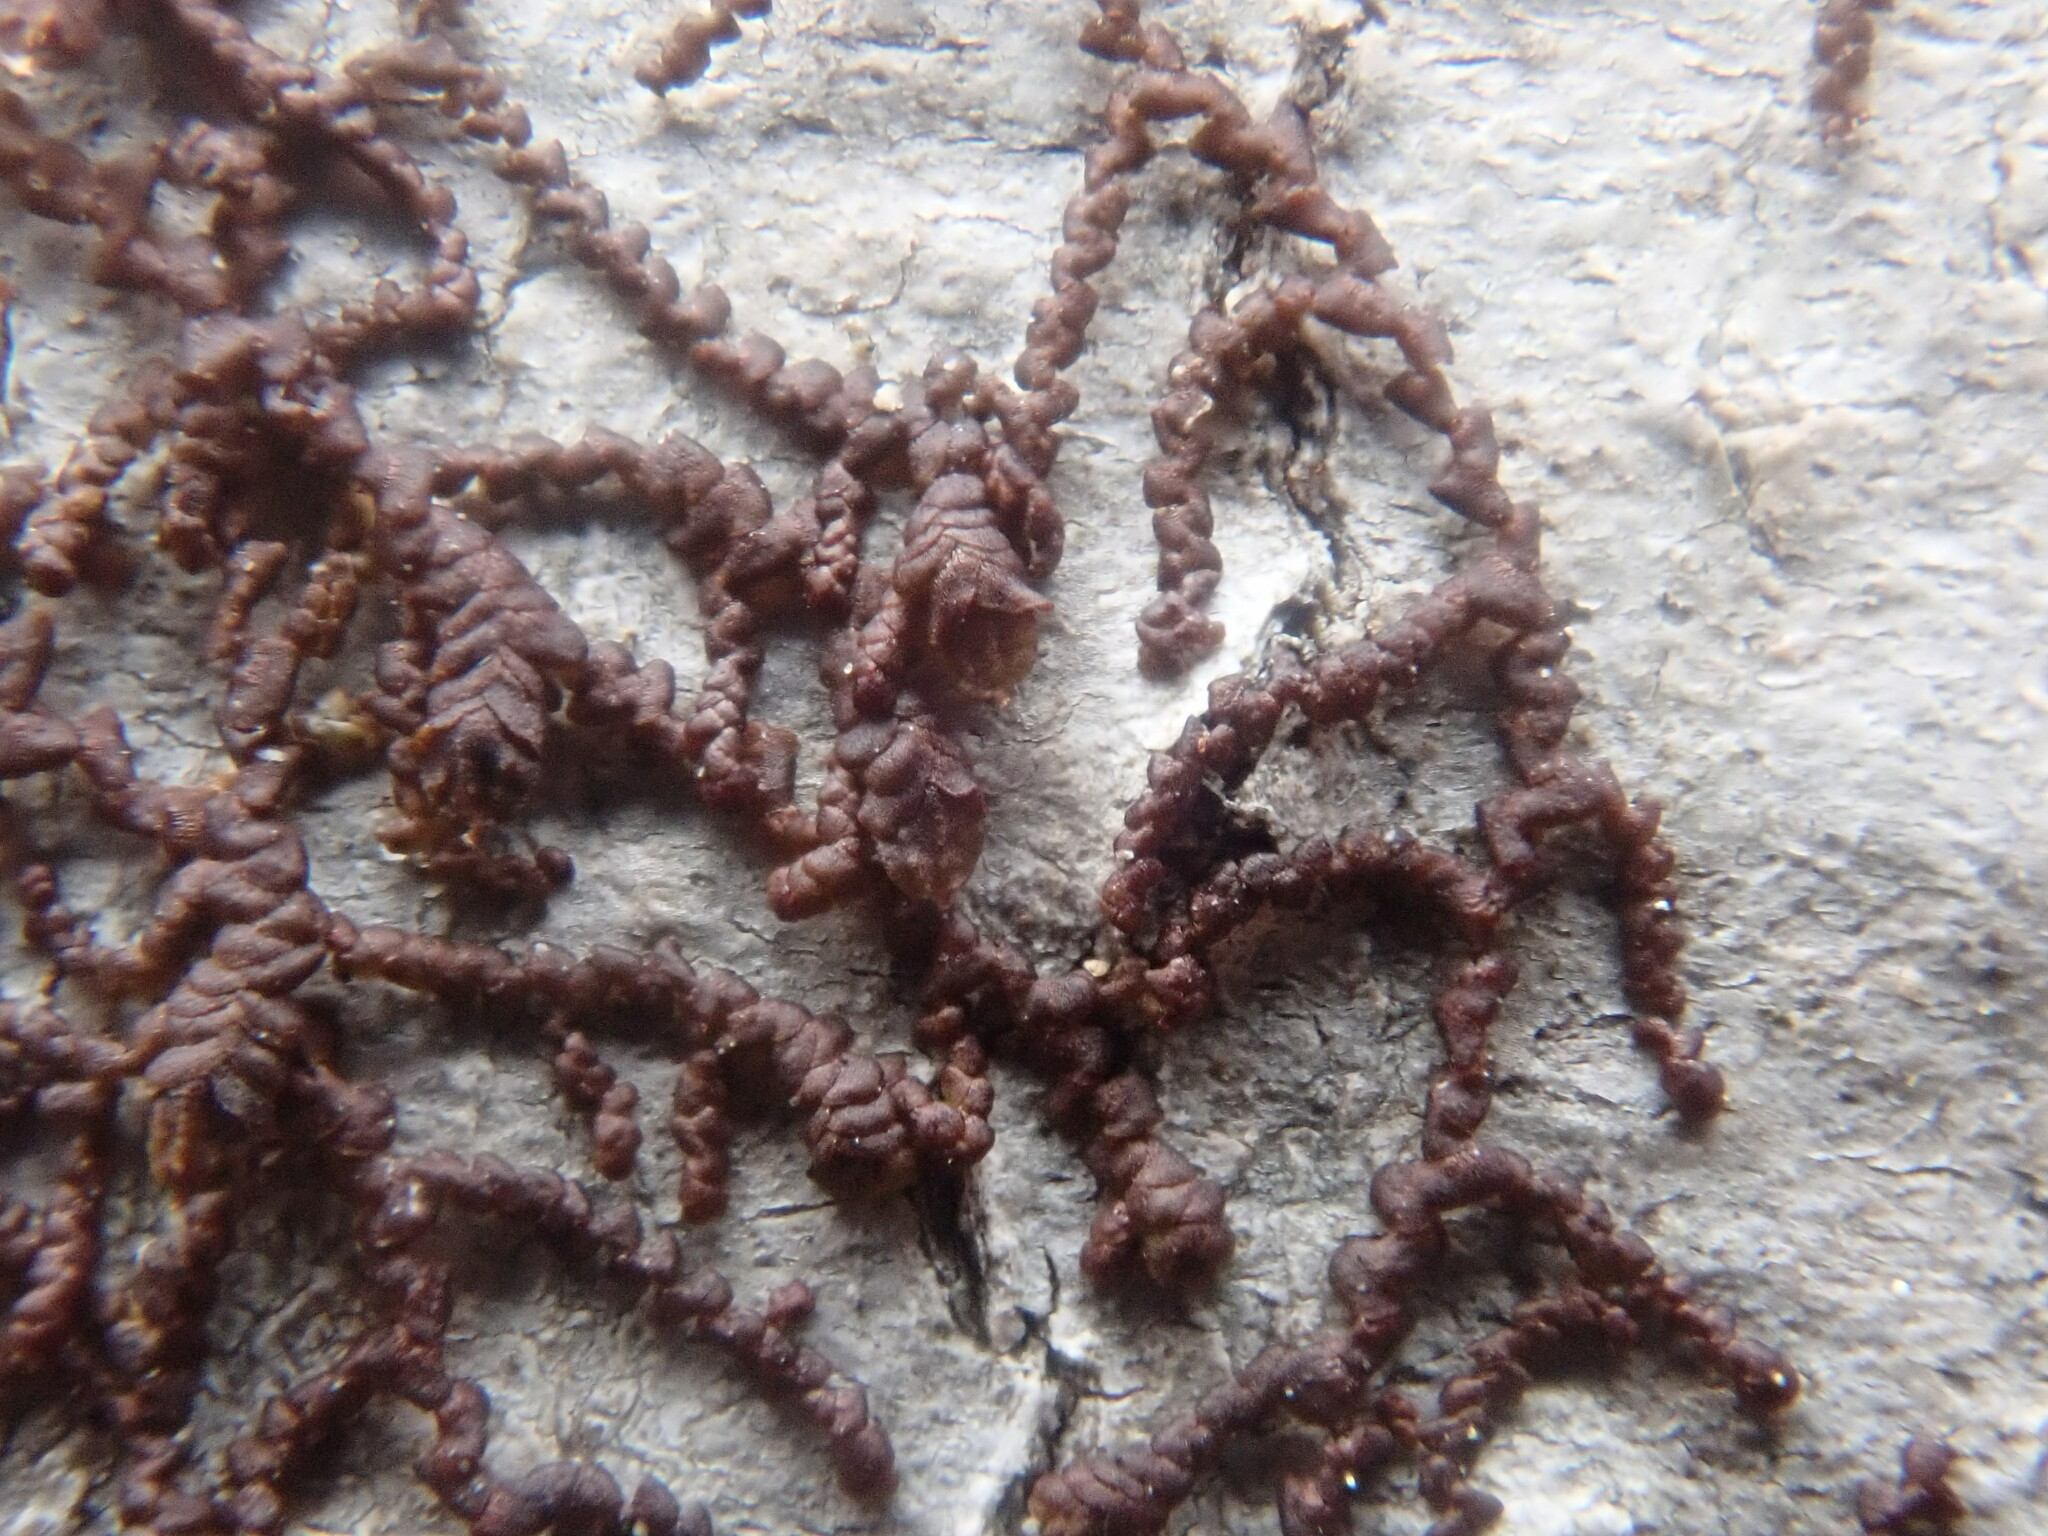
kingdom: Plantae
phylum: Marchantiophyta
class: Jungermanniopsida
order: Porellales
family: Frullaniaceae
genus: Frullania
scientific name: Frullania
